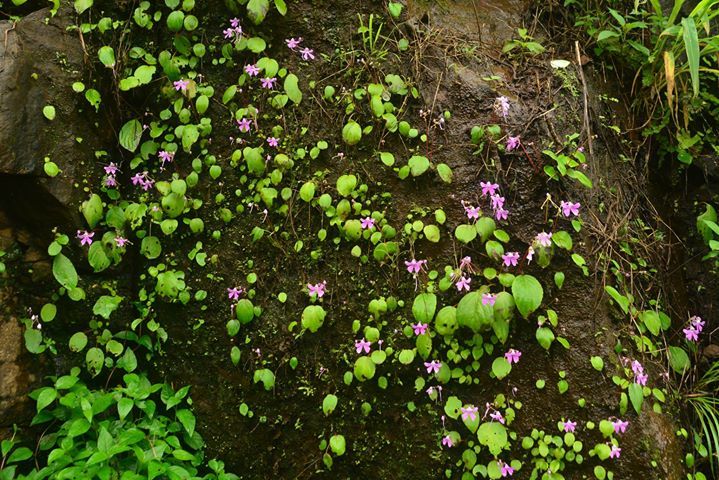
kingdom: Plantae
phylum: Tracheophyta
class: Magnoliopsida
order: Ericales
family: Balsaminaceae
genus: Impatiens
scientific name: Impatiens acaulis
